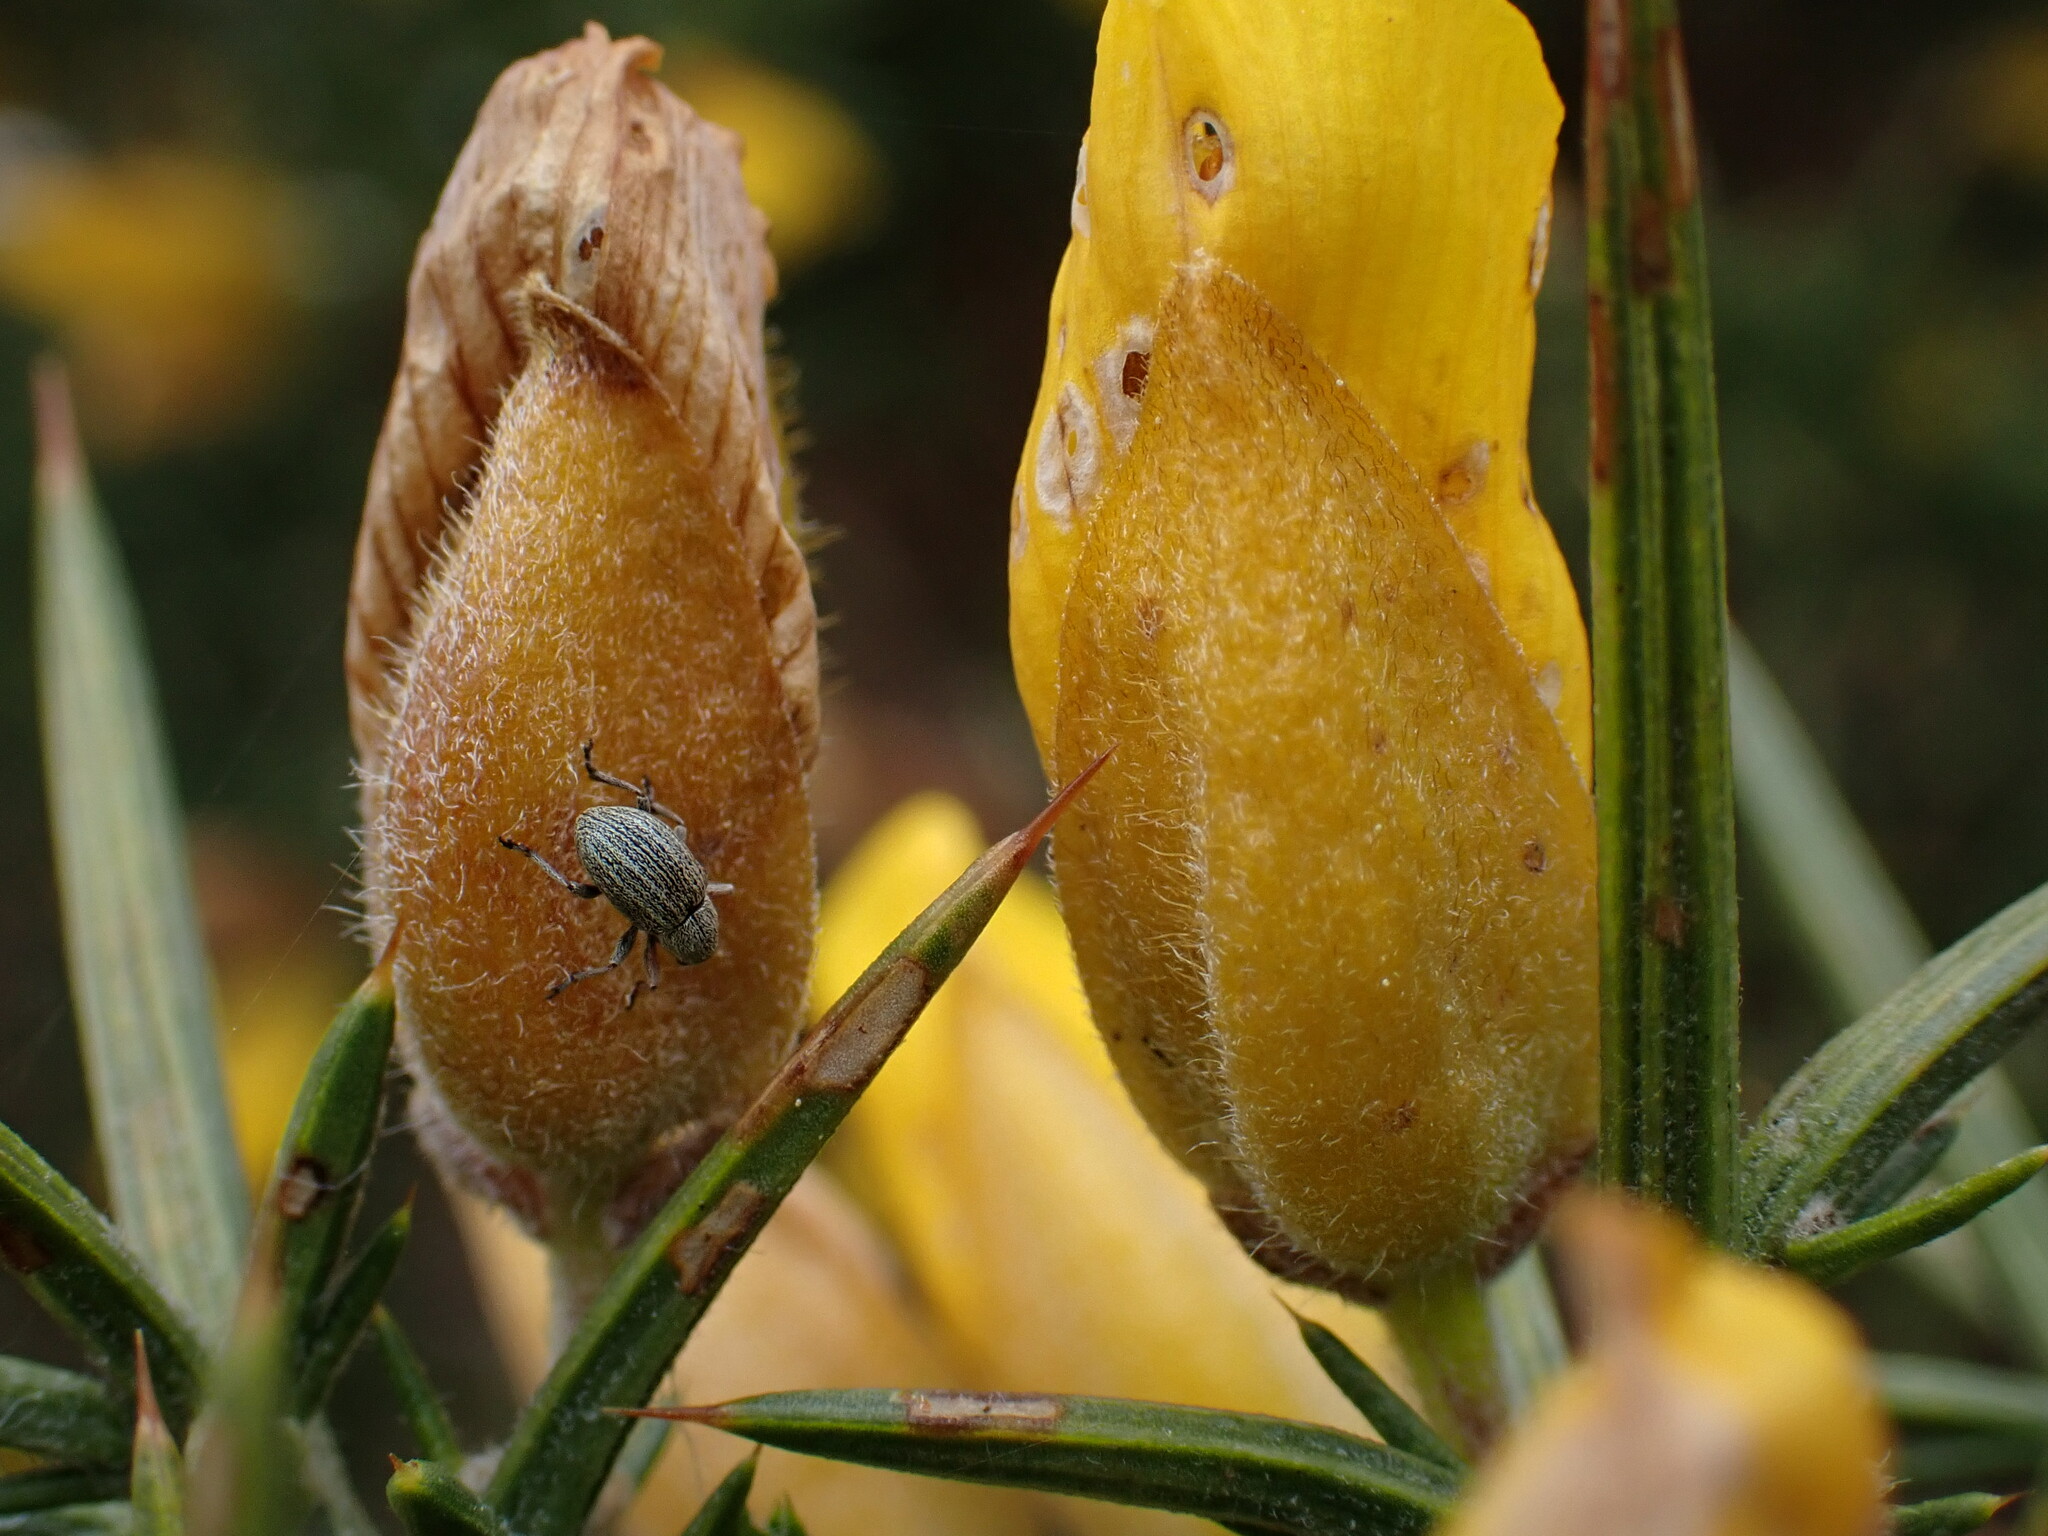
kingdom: Animalia
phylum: Arthropoda
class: Insecta
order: Coleoptera
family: Brentidae
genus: Exapion
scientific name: Exapion ulicis
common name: Gorse seed weevil
